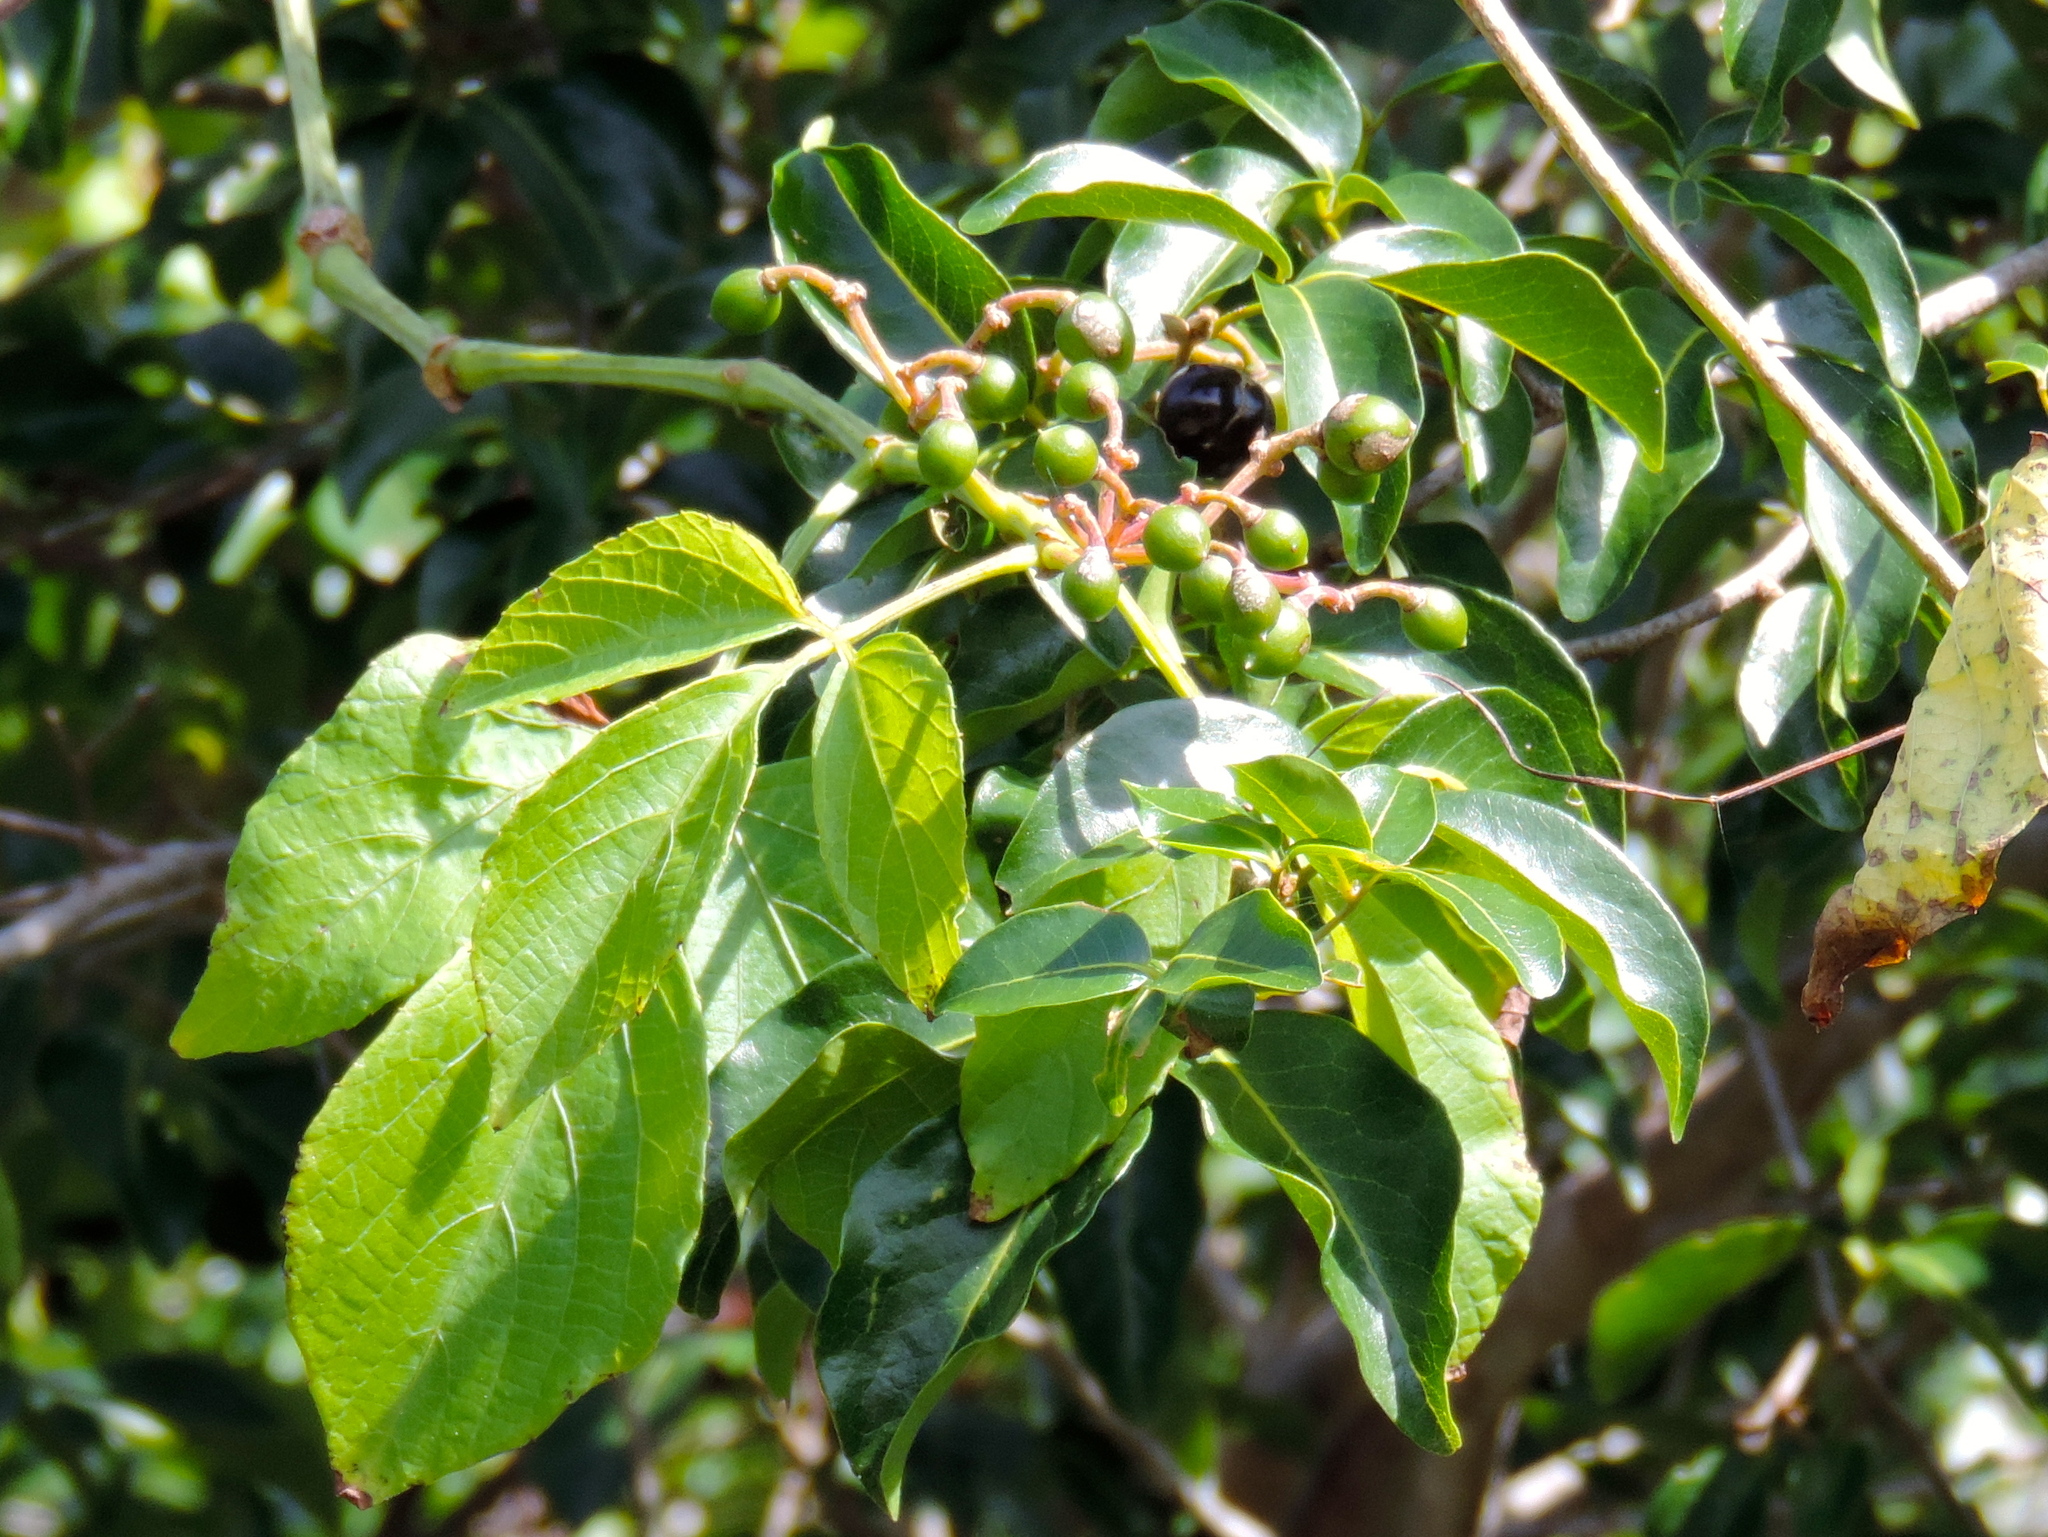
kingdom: Plantae
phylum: Tracheophyta
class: Magnoliopsida
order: Vitales
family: Vitaceae
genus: Cissus
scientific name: Cissus microcarpa
